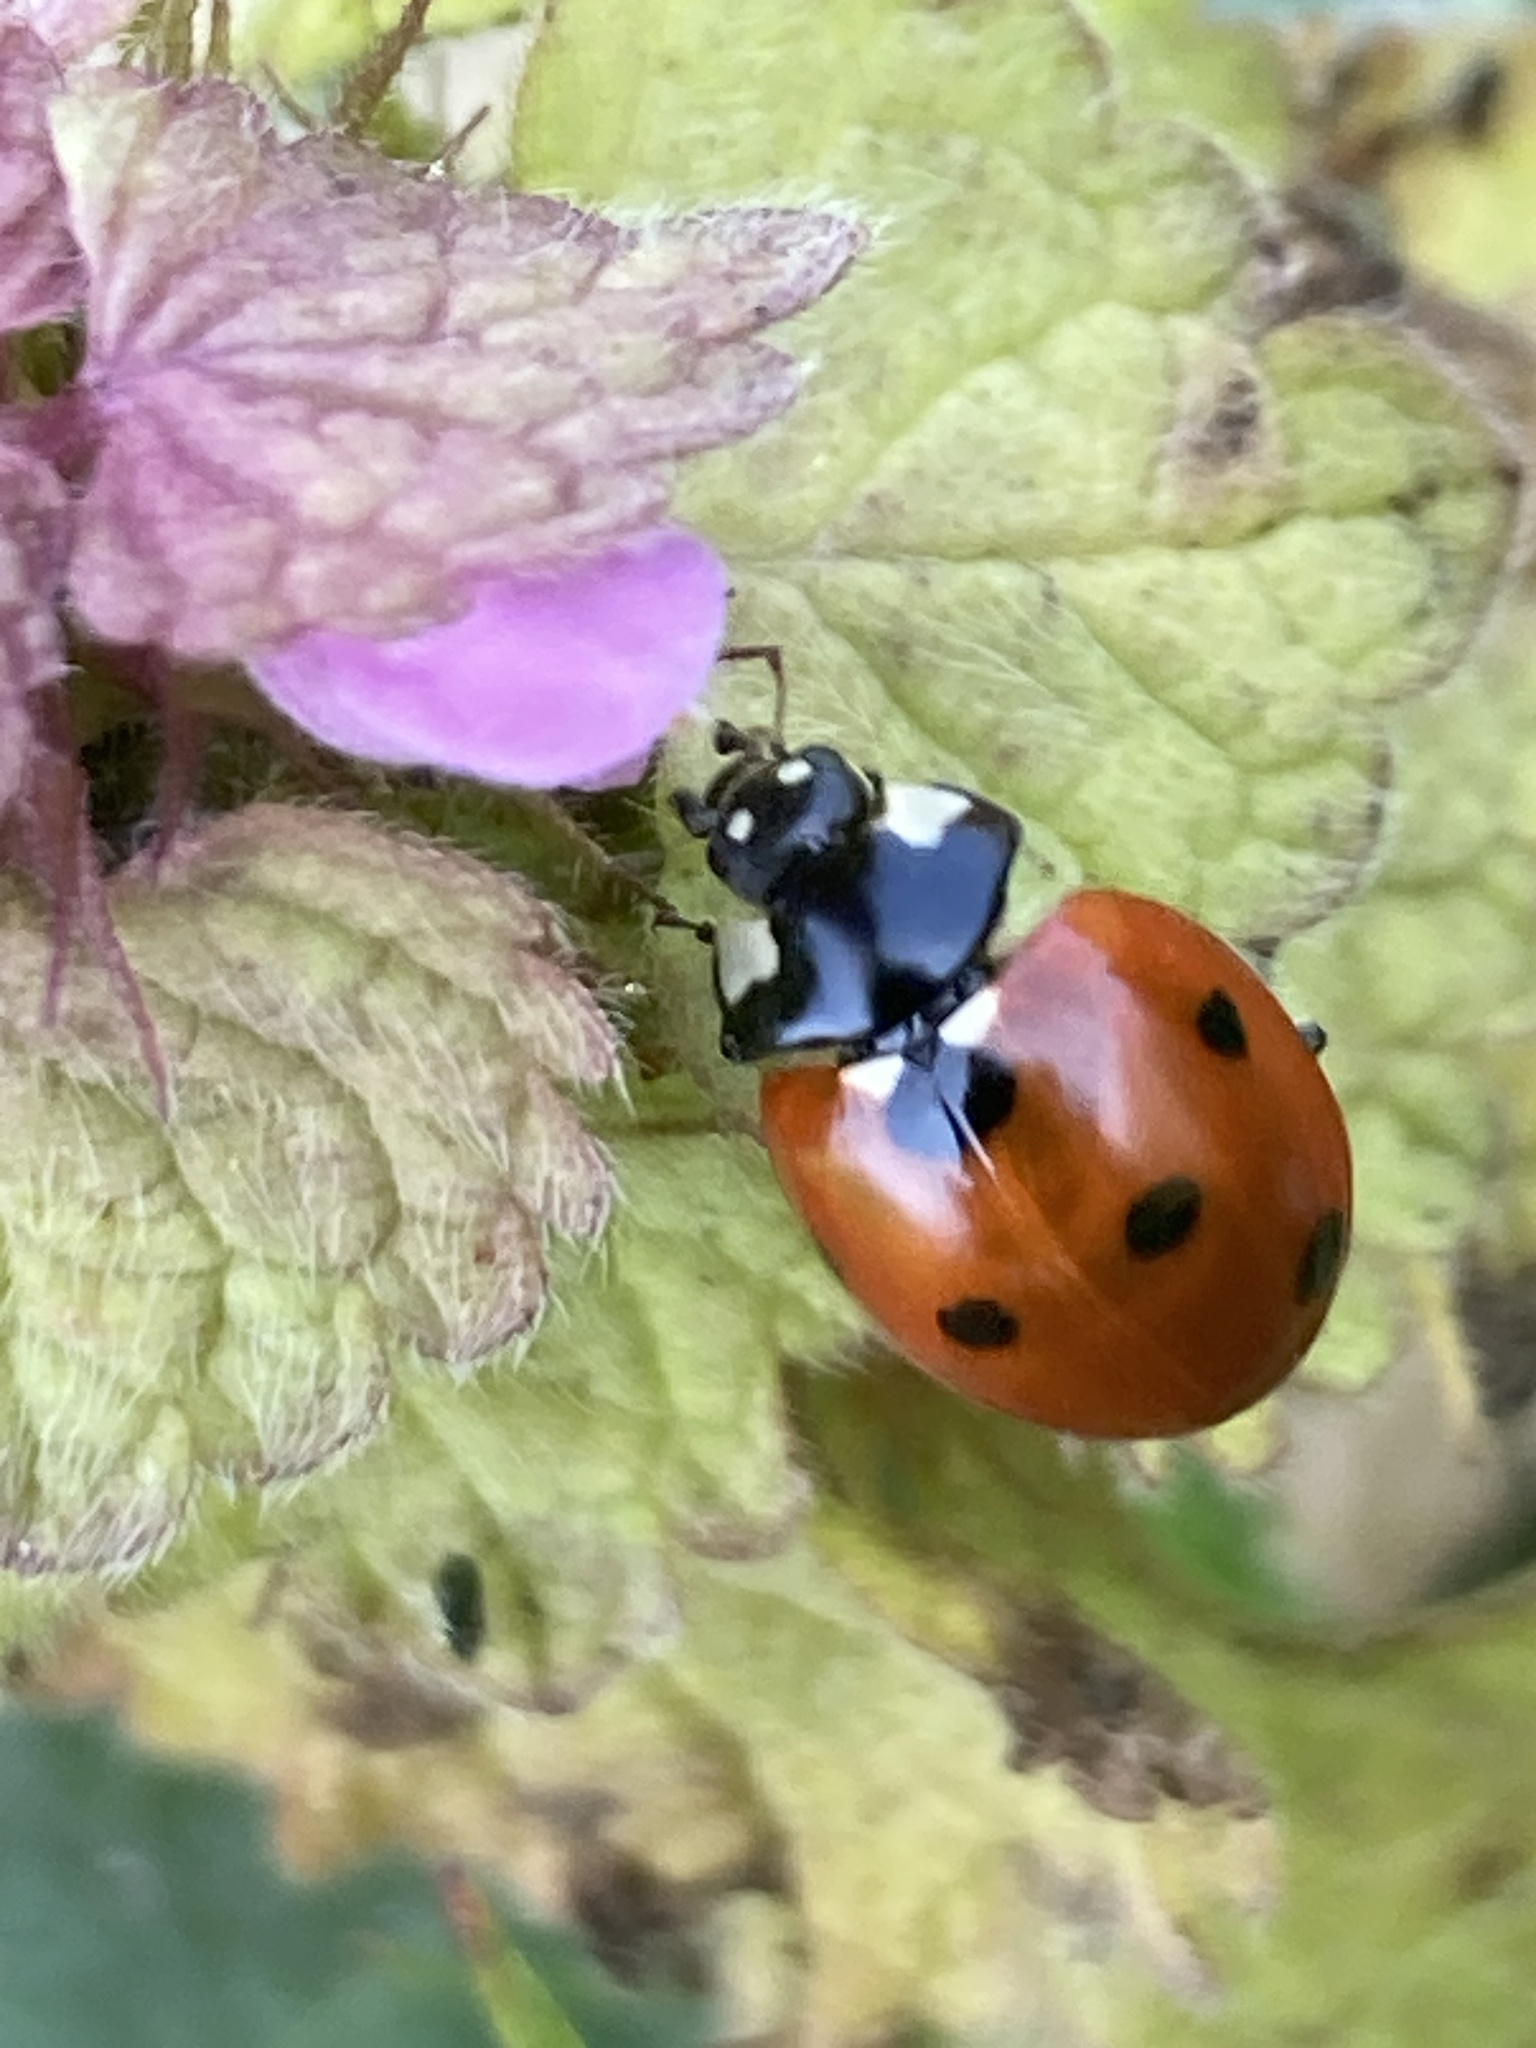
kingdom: Animalia
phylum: Arthropoda
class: Insecta
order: Coleoptera
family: Coccinellidae
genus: Coccinella
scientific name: Coccinella septempunctata
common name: Sevenspotted lady beetle
